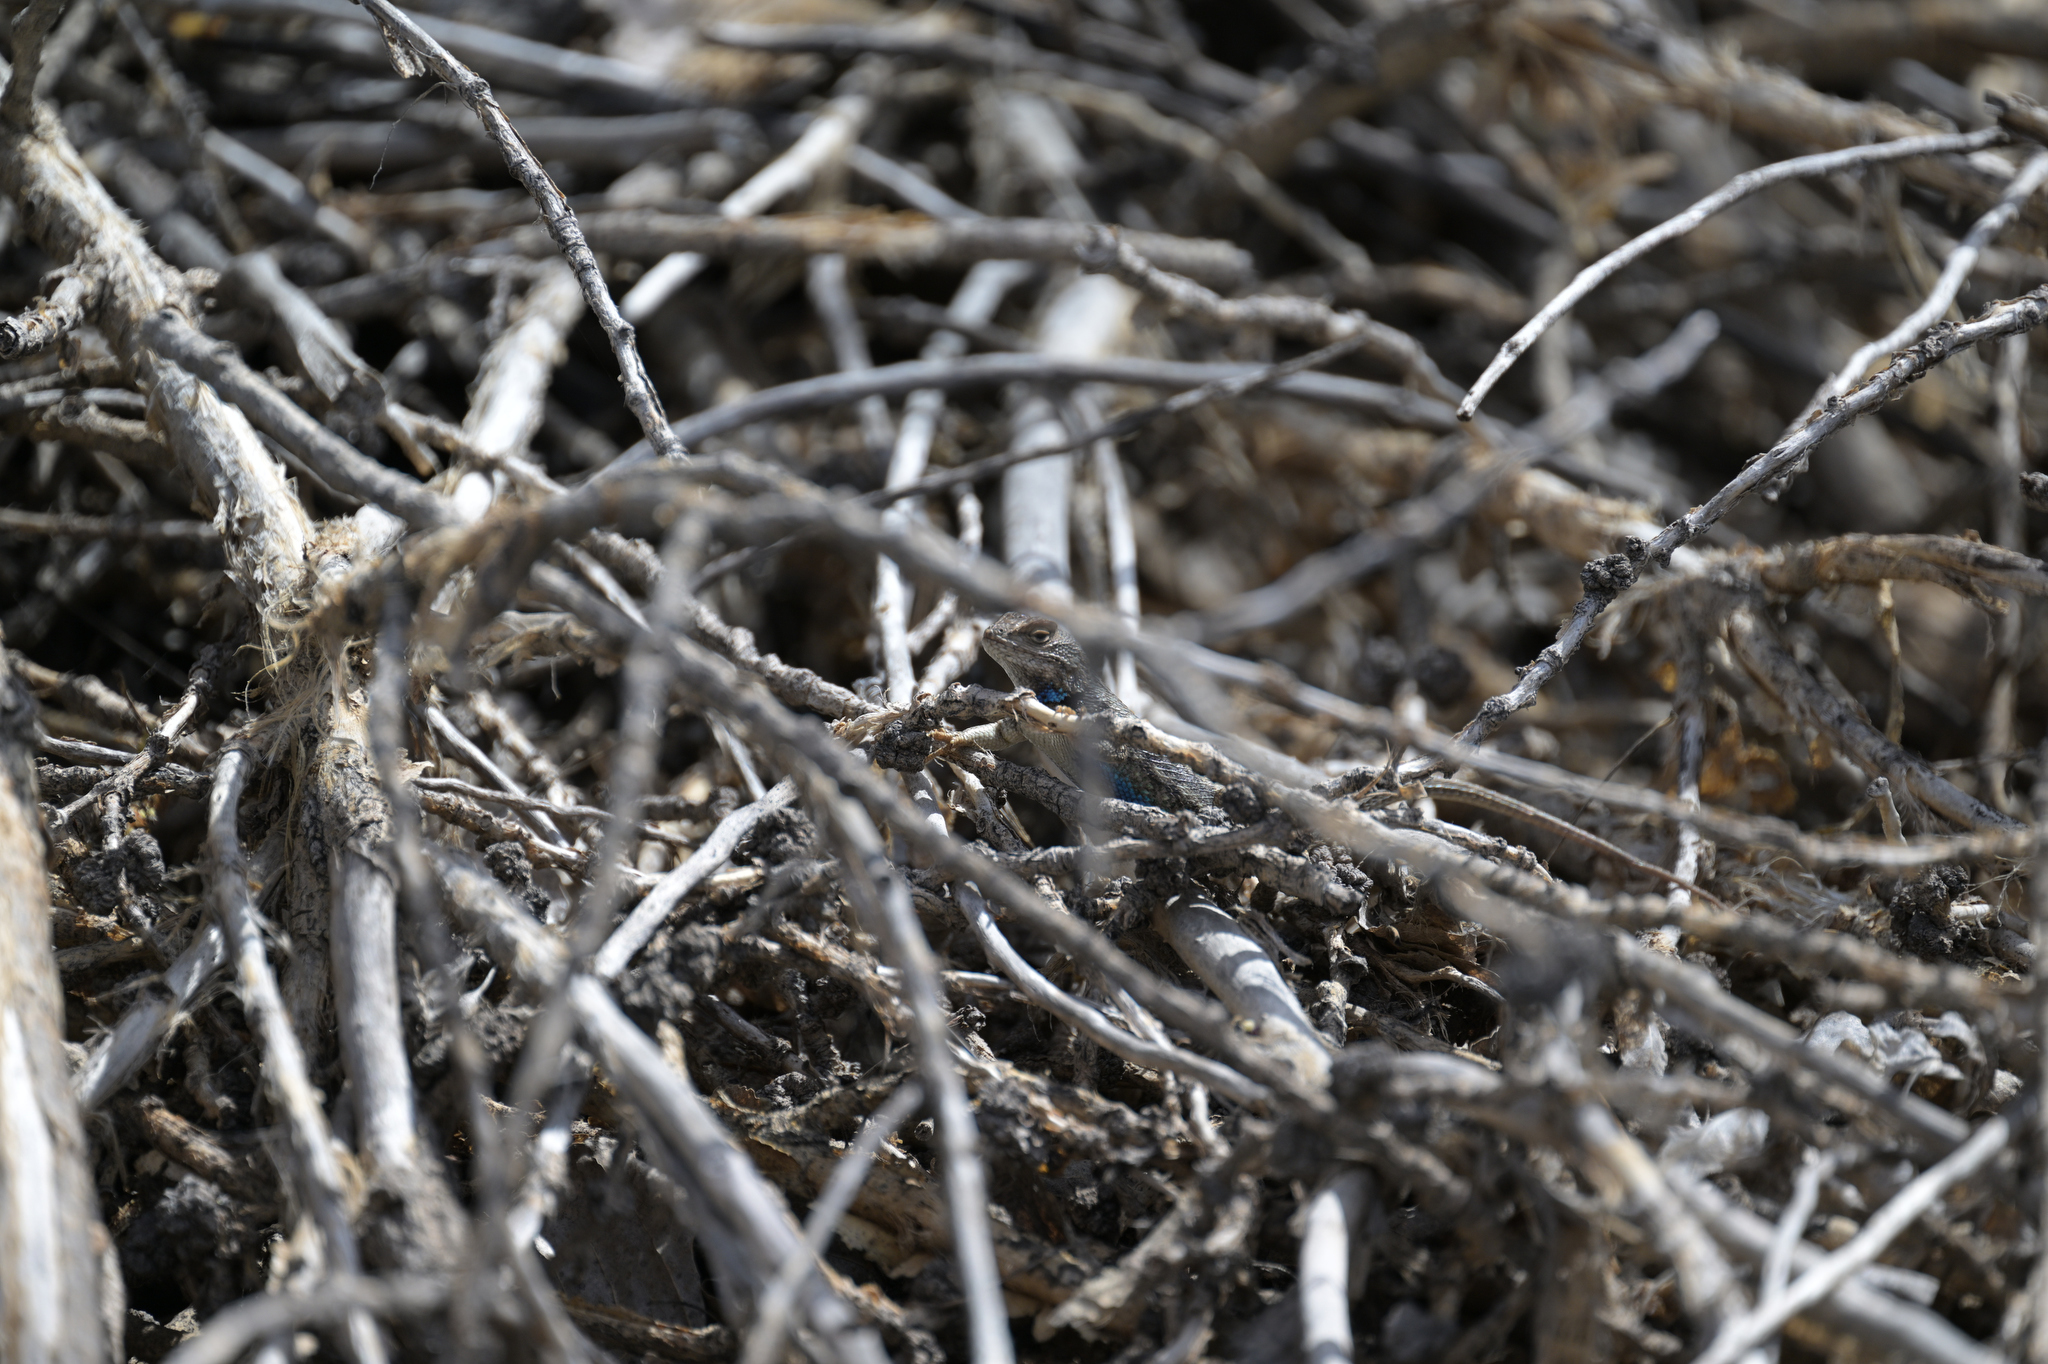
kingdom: Animalia
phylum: Chordata
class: Squamata
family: Phrynosomatidae
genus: Sceloporus
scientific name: Sceloporus tristichus
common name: Plateau fence lizard
